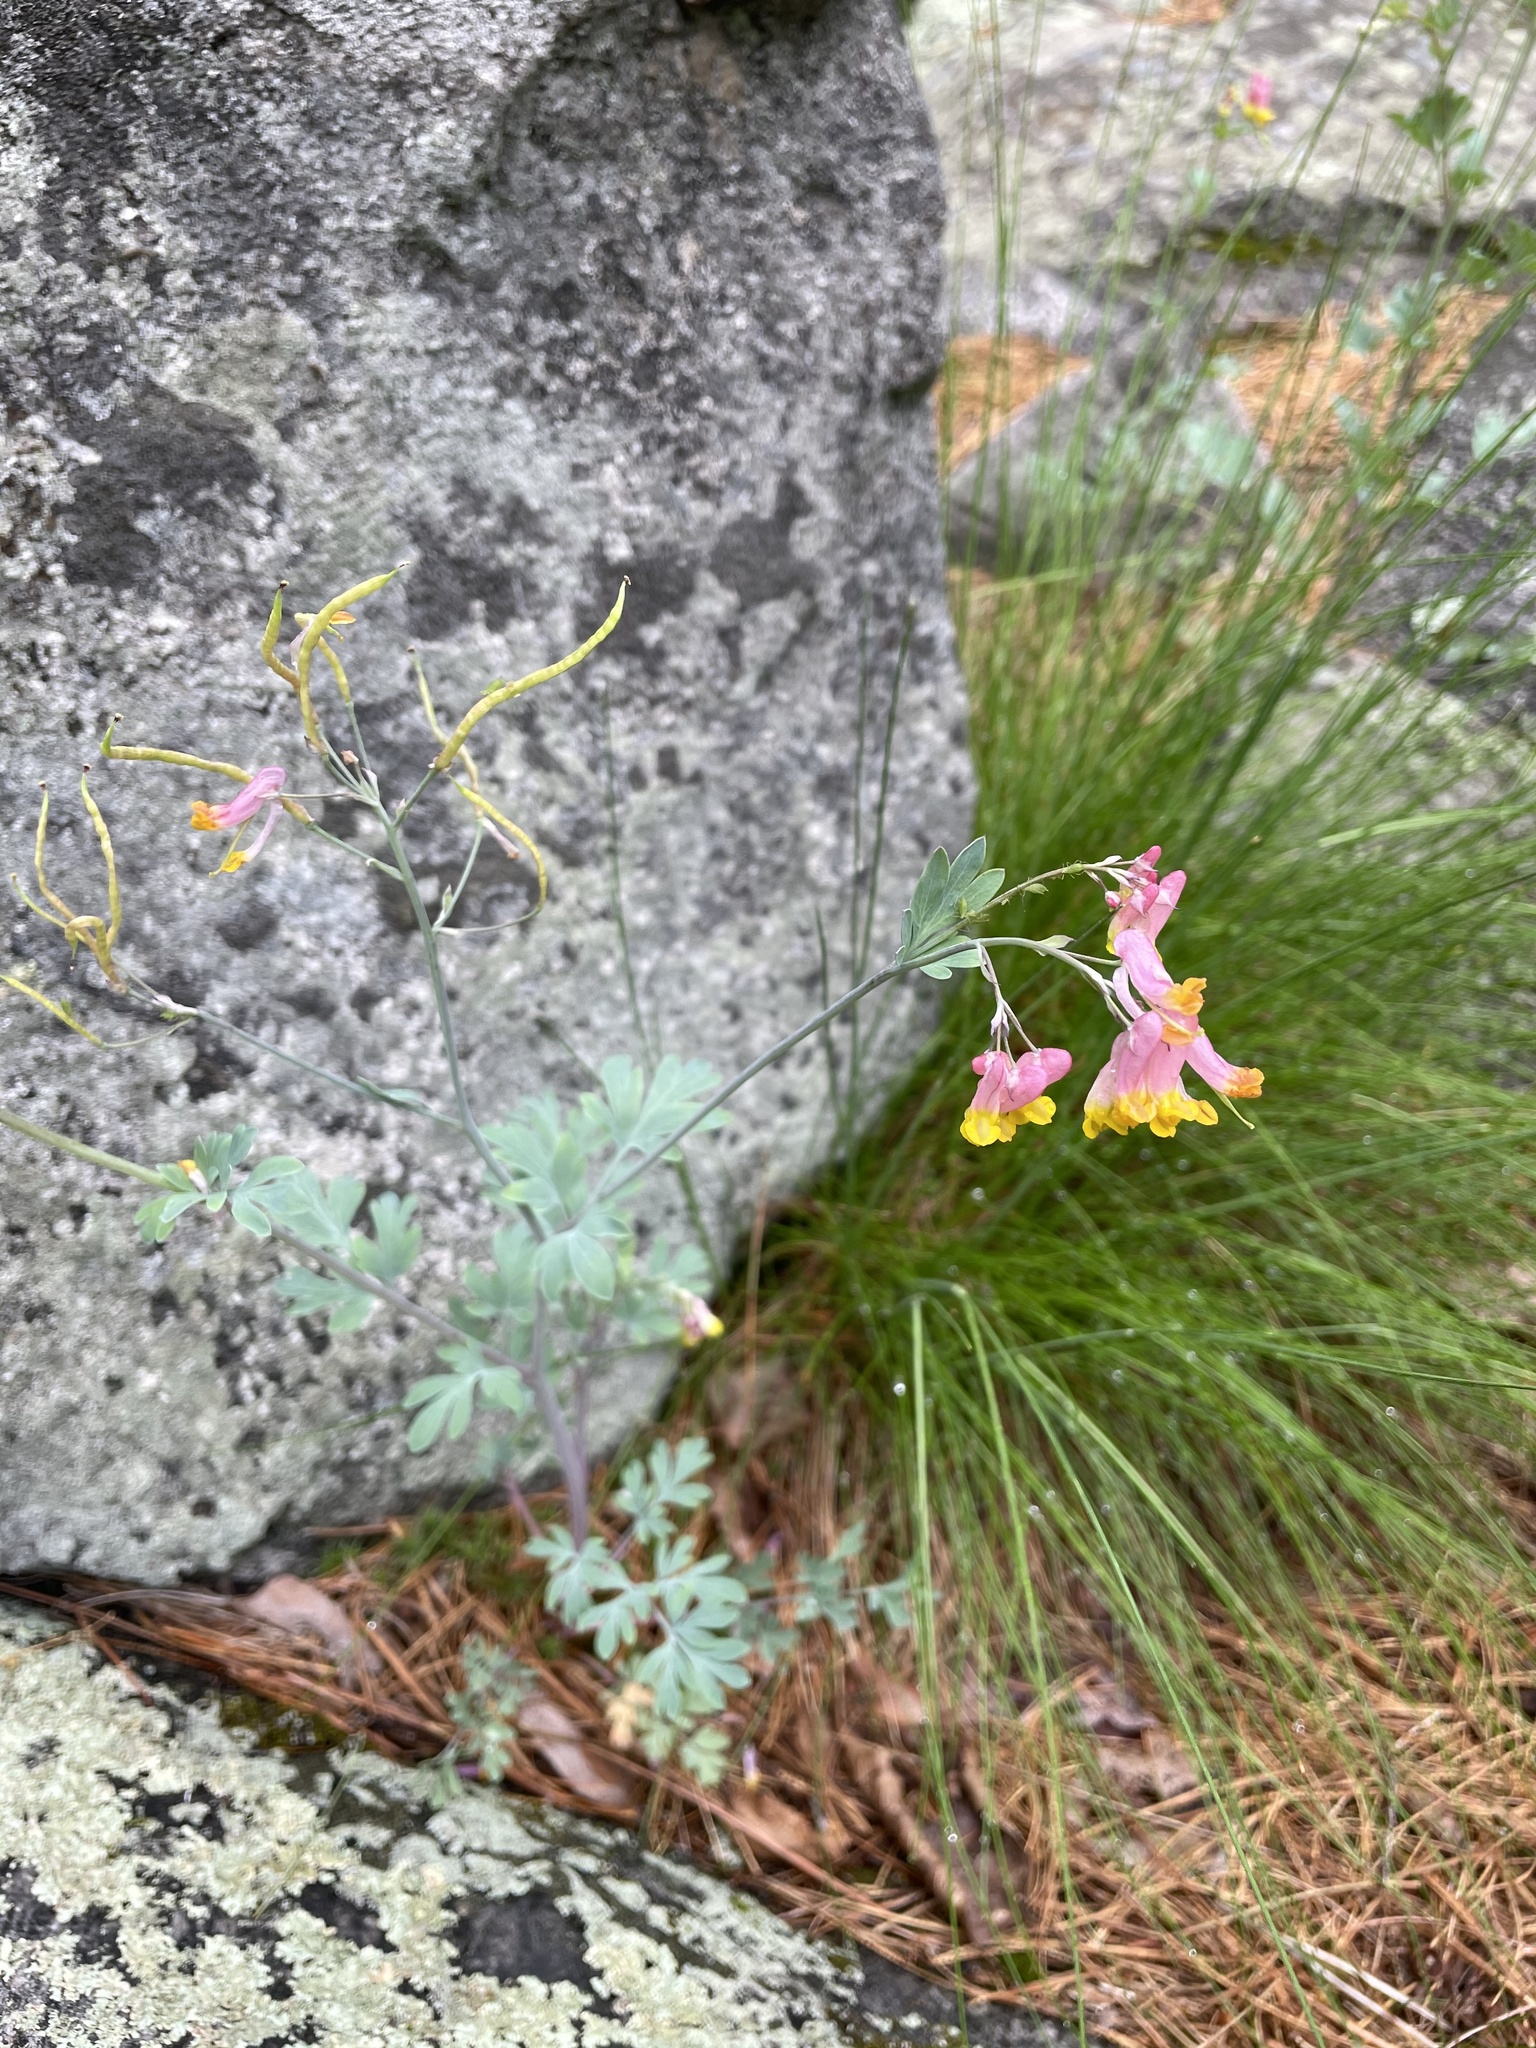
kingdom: Plantae
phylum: Tracheophyta
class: Magnoliopsida
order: Ranunculales
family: Papaveraceae
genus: Capnoides
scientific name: Capnoides sempervirens
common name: Rock harlequin
